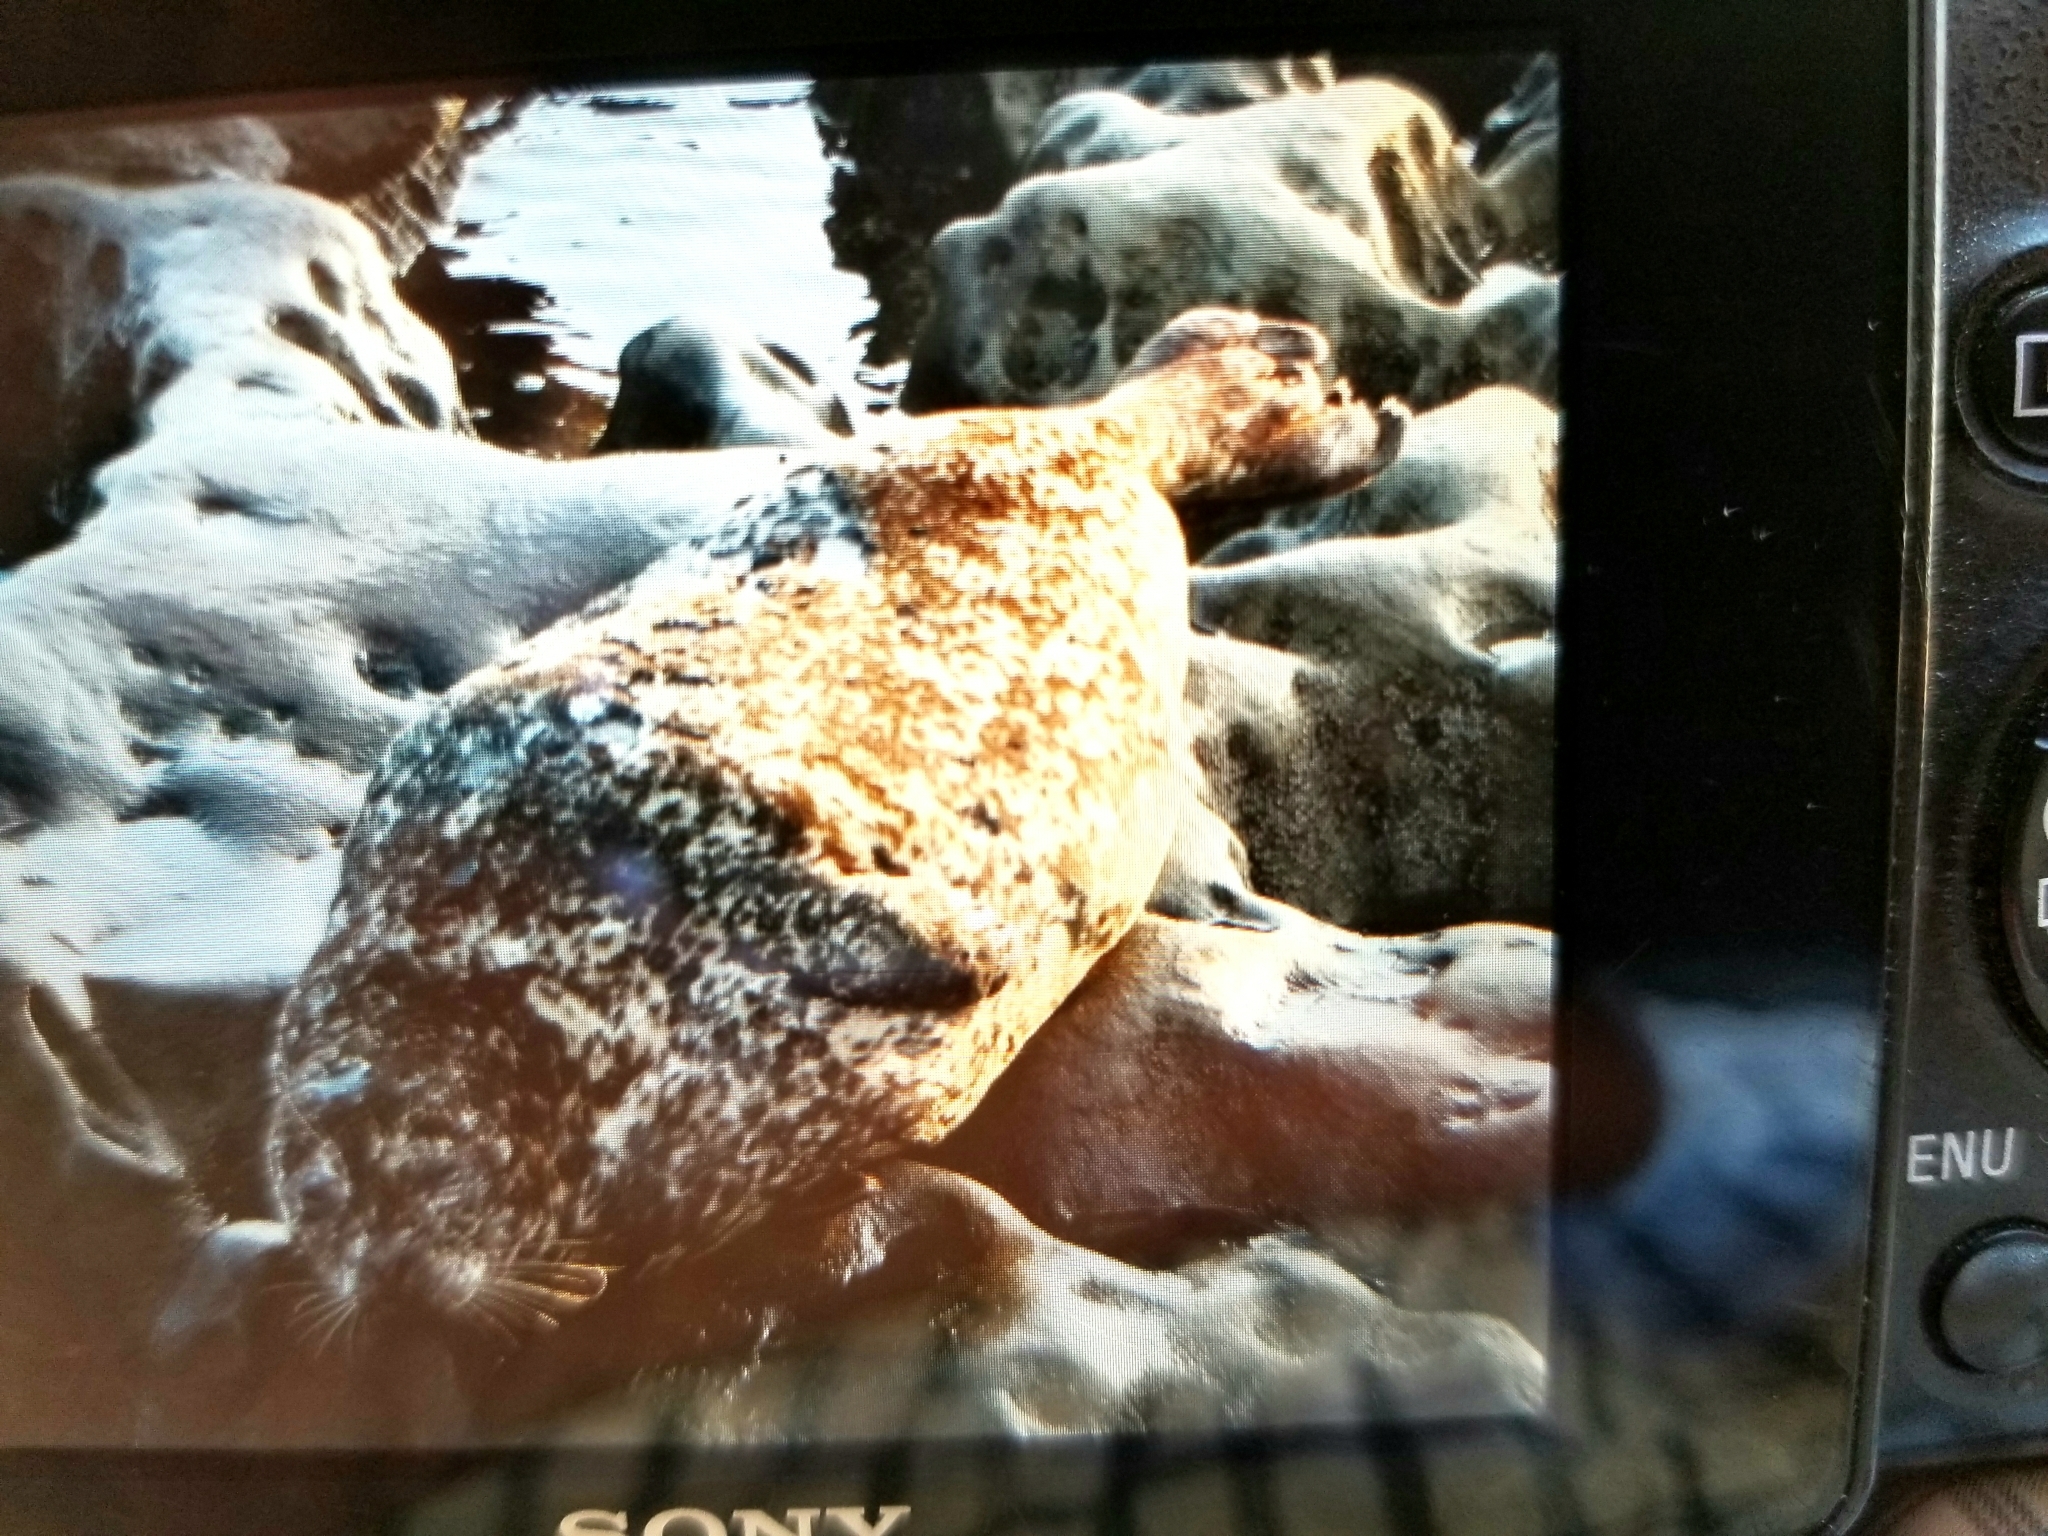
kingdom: Animalia
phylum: Chordata
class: Mammalia
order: Carnivora
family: Phocidae
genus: Phoca
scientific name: Phoca vitulina
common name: Harbor seal
